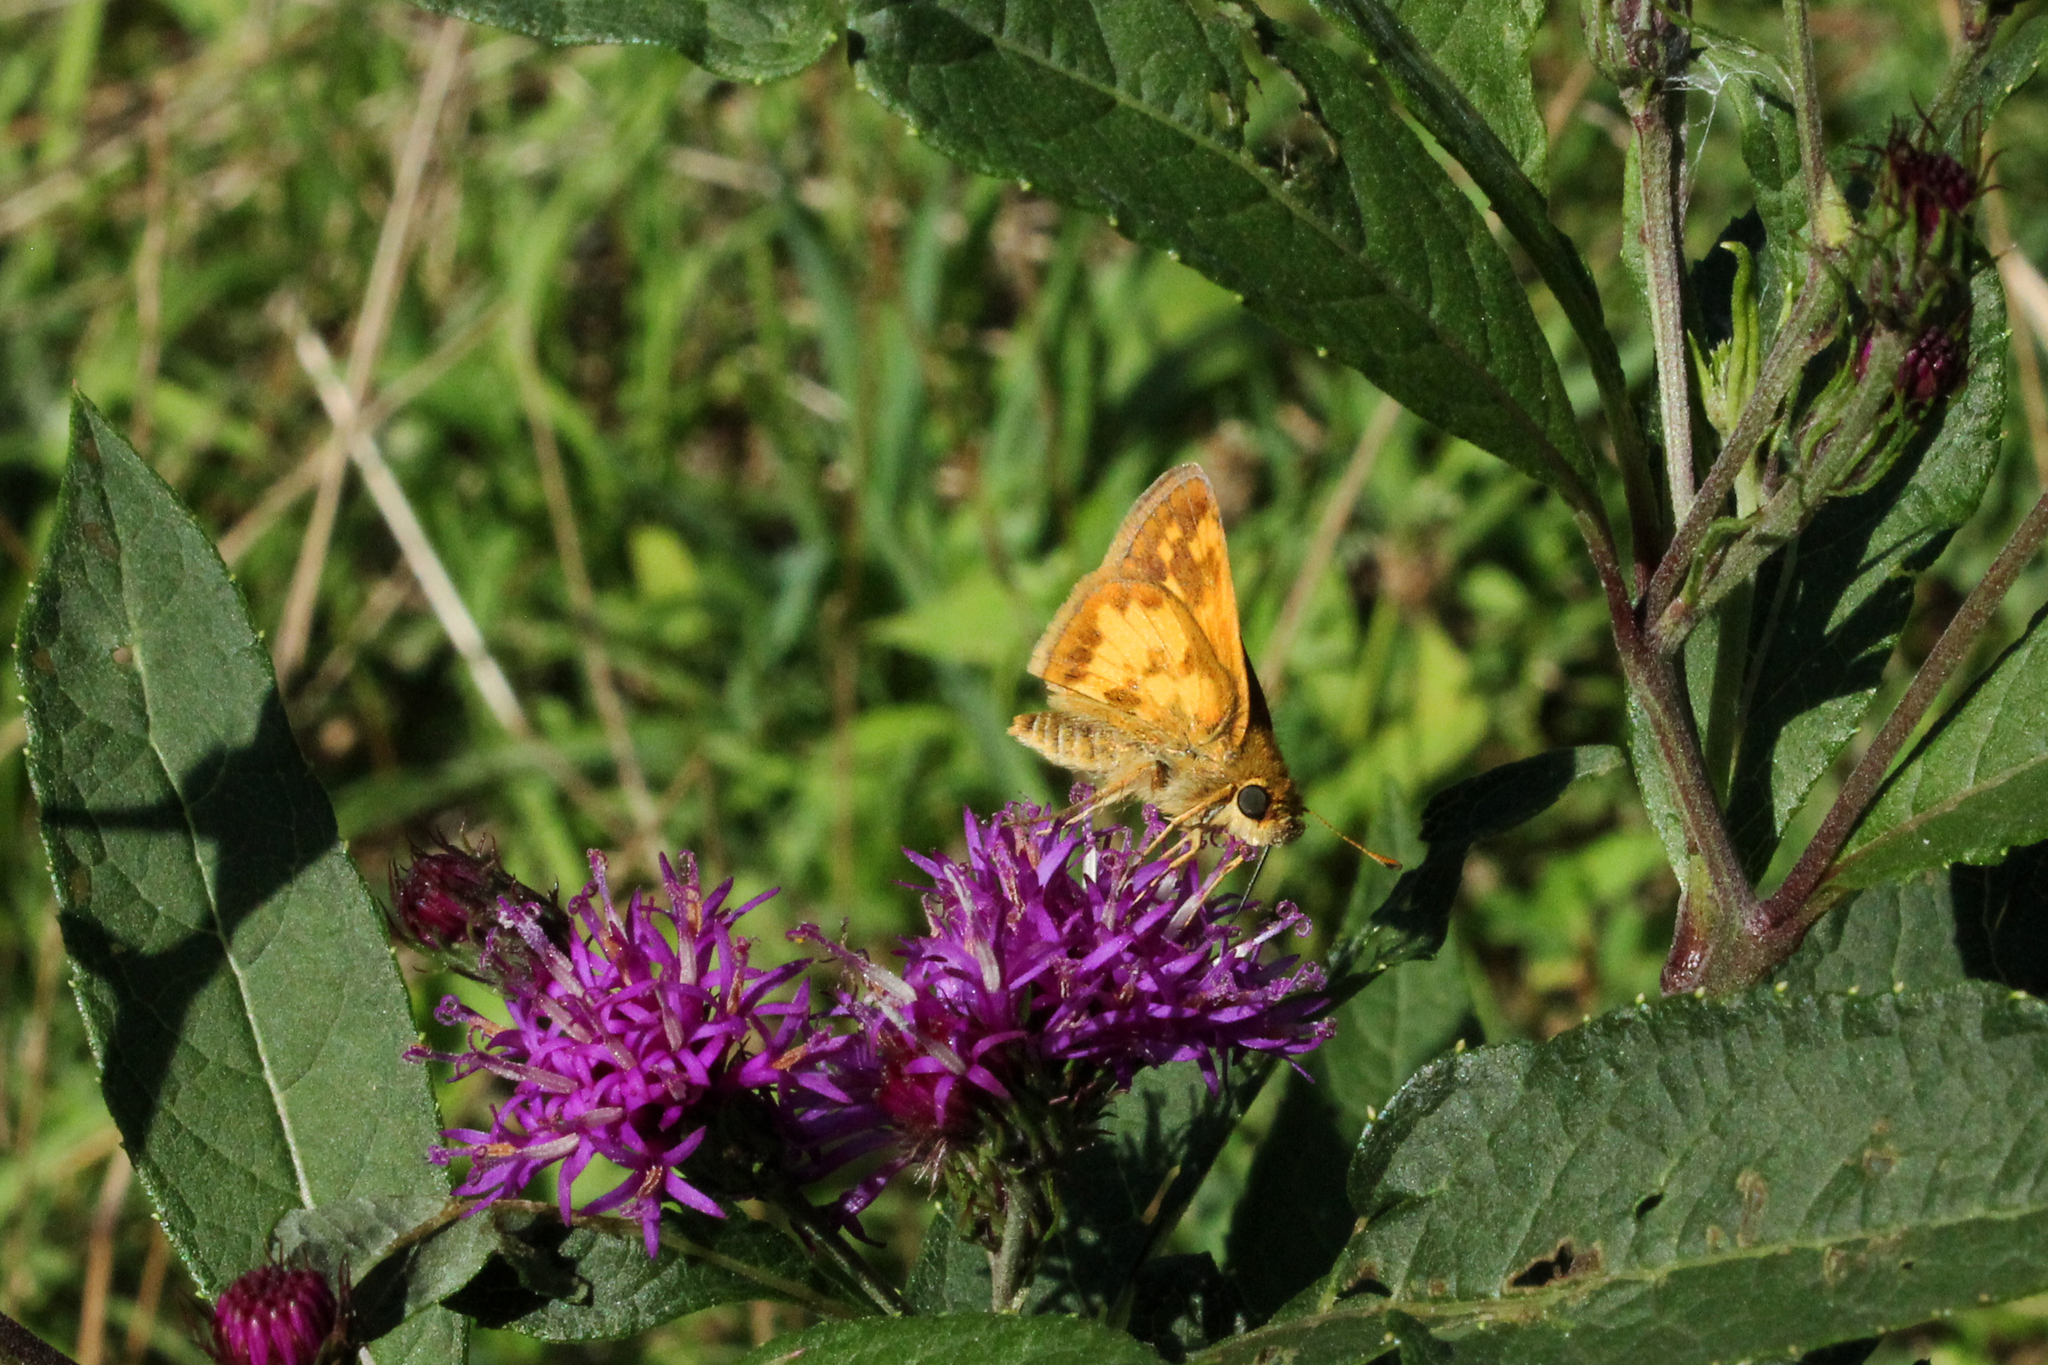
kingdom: Animalia
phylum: Arthropoda
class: Insecta
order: Lepidoptera
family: Hesperiidae
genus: Polites
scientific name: Polites coras
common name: Peck's skipper
